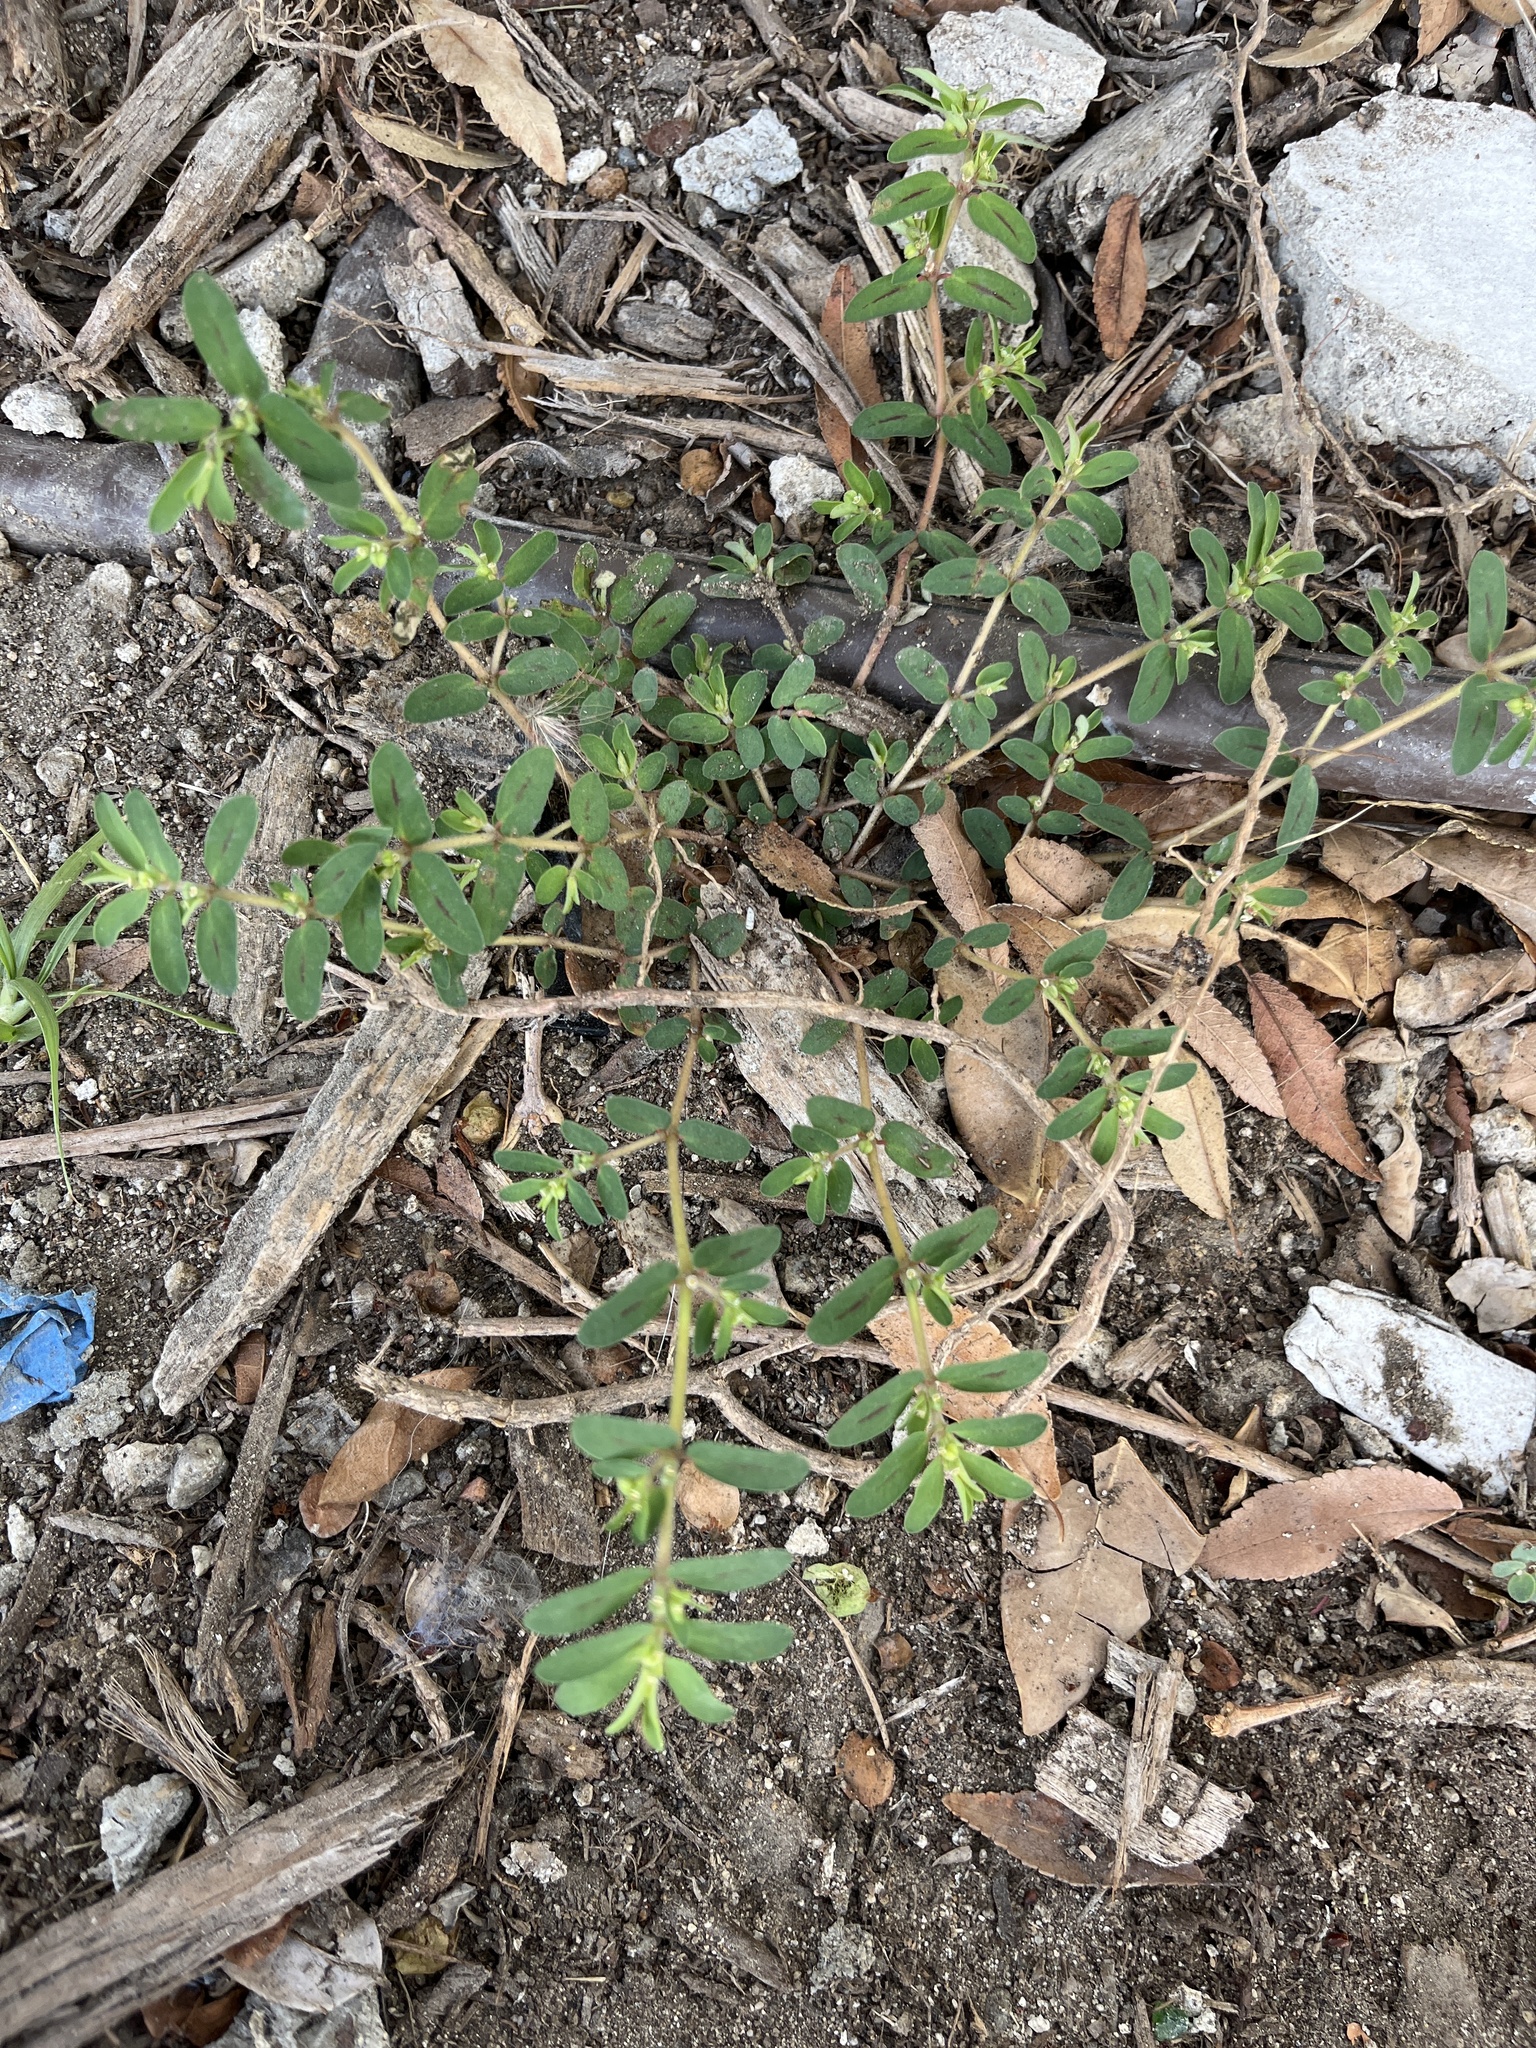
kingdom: Plantae
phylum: Tracheophyta
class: Magnoliopsida
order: Malpighiales
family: Euphorbiaceae
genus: Euphorbia
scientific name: Euphorbia maculata
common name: Spotted spurge
